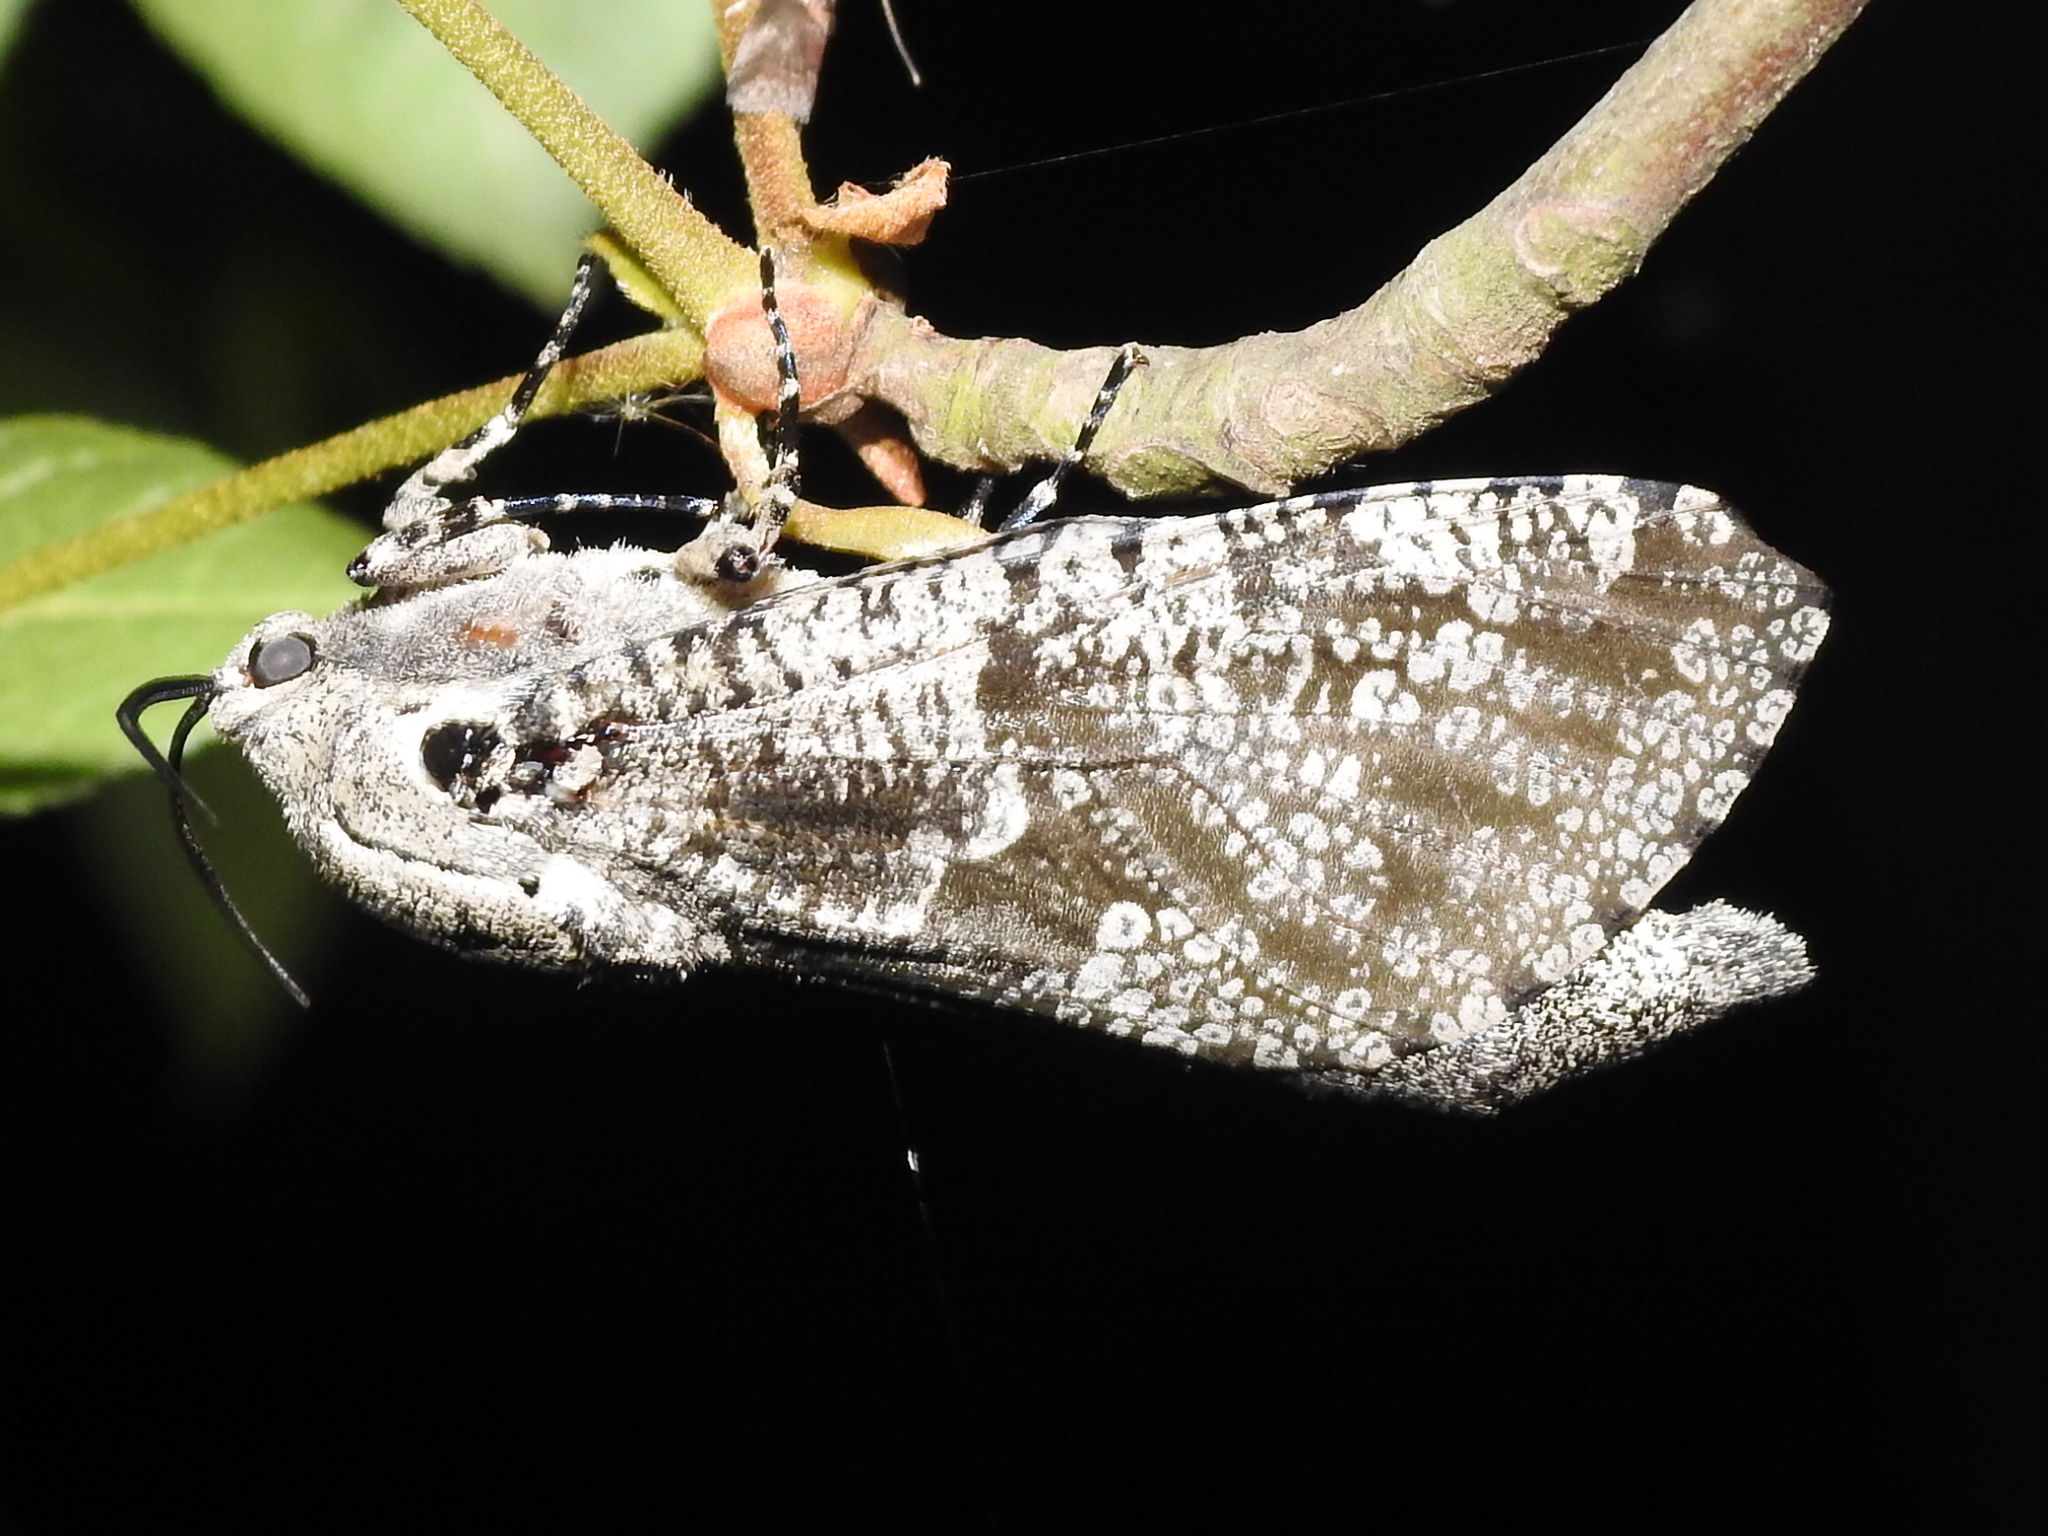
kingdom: Animalia
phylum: Arthropoda
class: Insecta
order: Lepidoptera
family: Cossidae
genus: Prionoxystus
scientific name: Prionoxystus robiniae
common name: Carpenterworm
